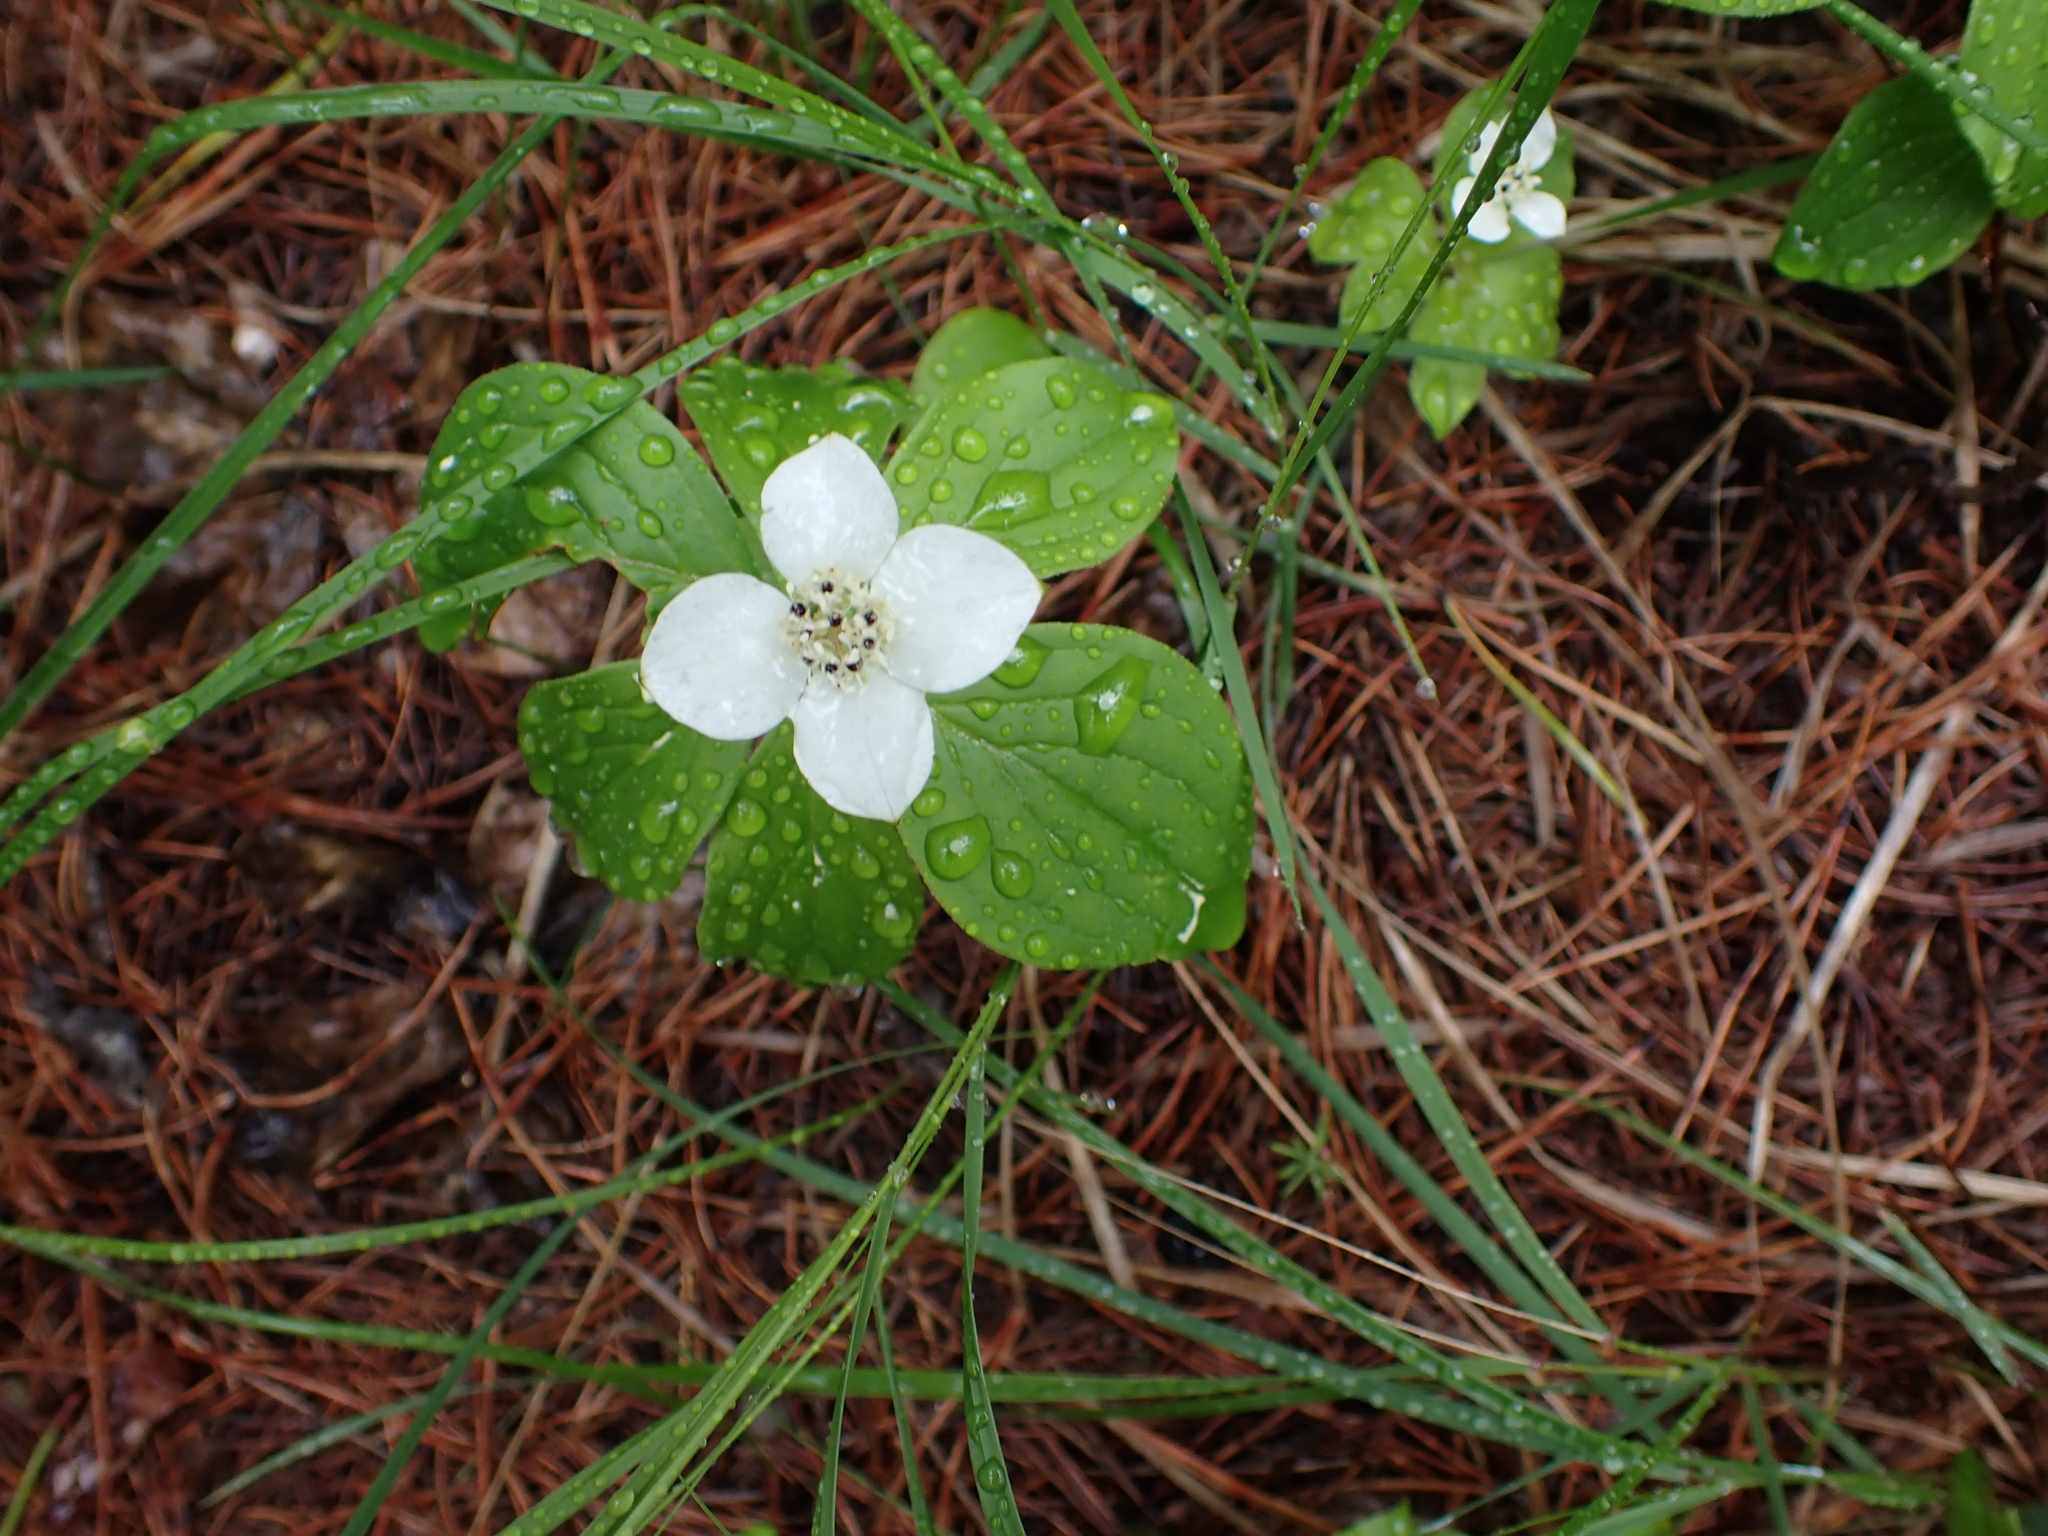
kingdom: Plantae
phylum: Tracheophyta
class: Magnoliopsida
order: Cornales
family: Cornaceae
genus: Cornus
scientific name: Cornus canadensis
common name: Creeping dogwood
